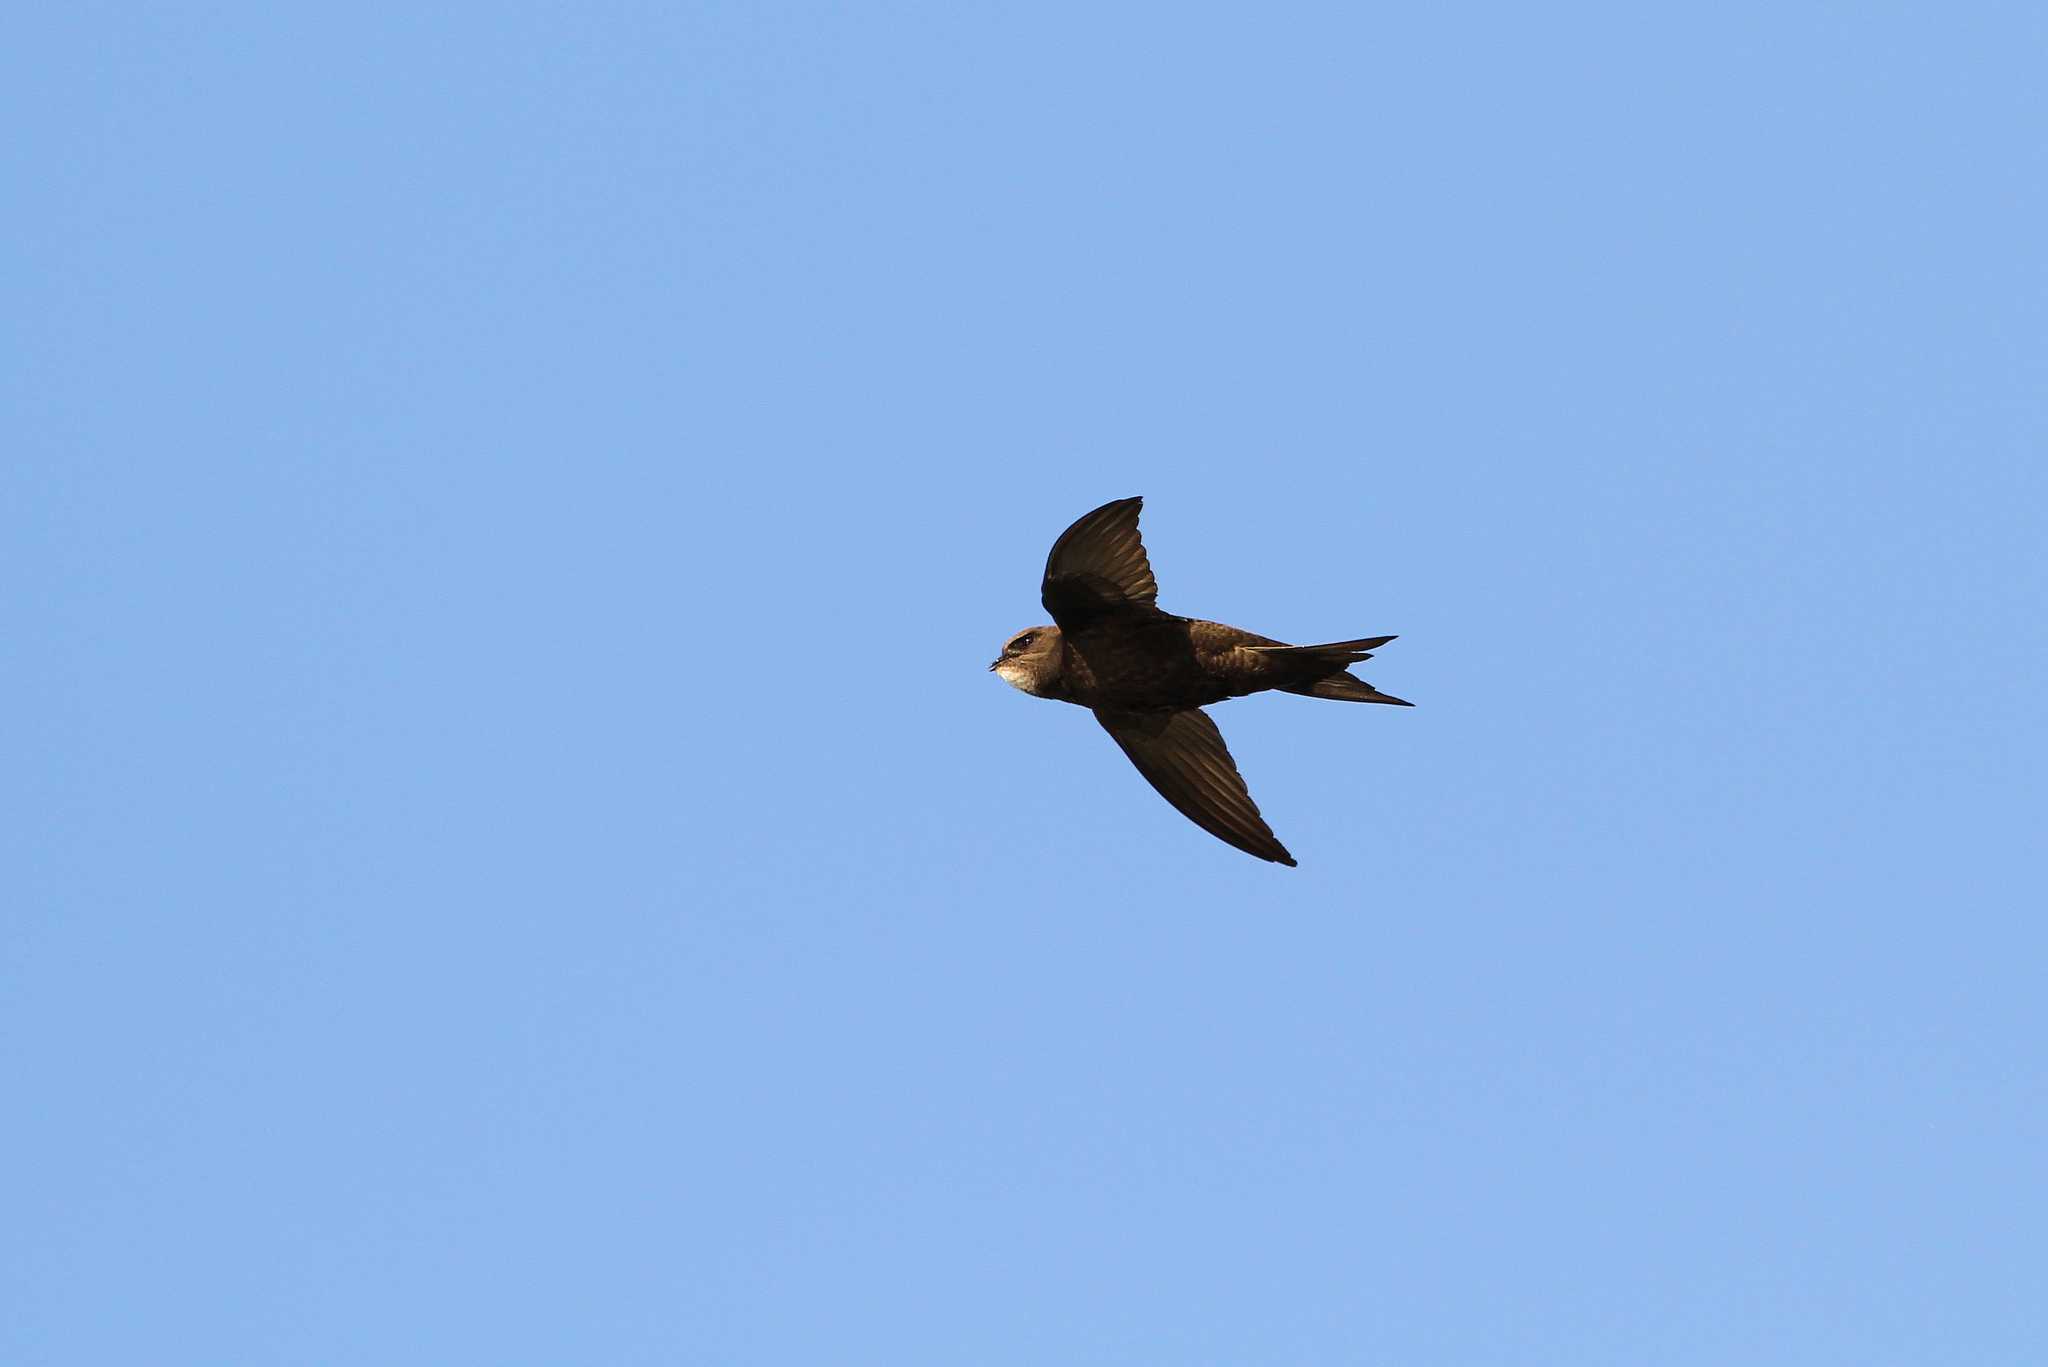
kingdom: Animalia
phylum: Chordata
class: Aves
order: Apodiformes
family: Apodidae
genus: Apus
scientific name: Apus apus
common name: Common swift
